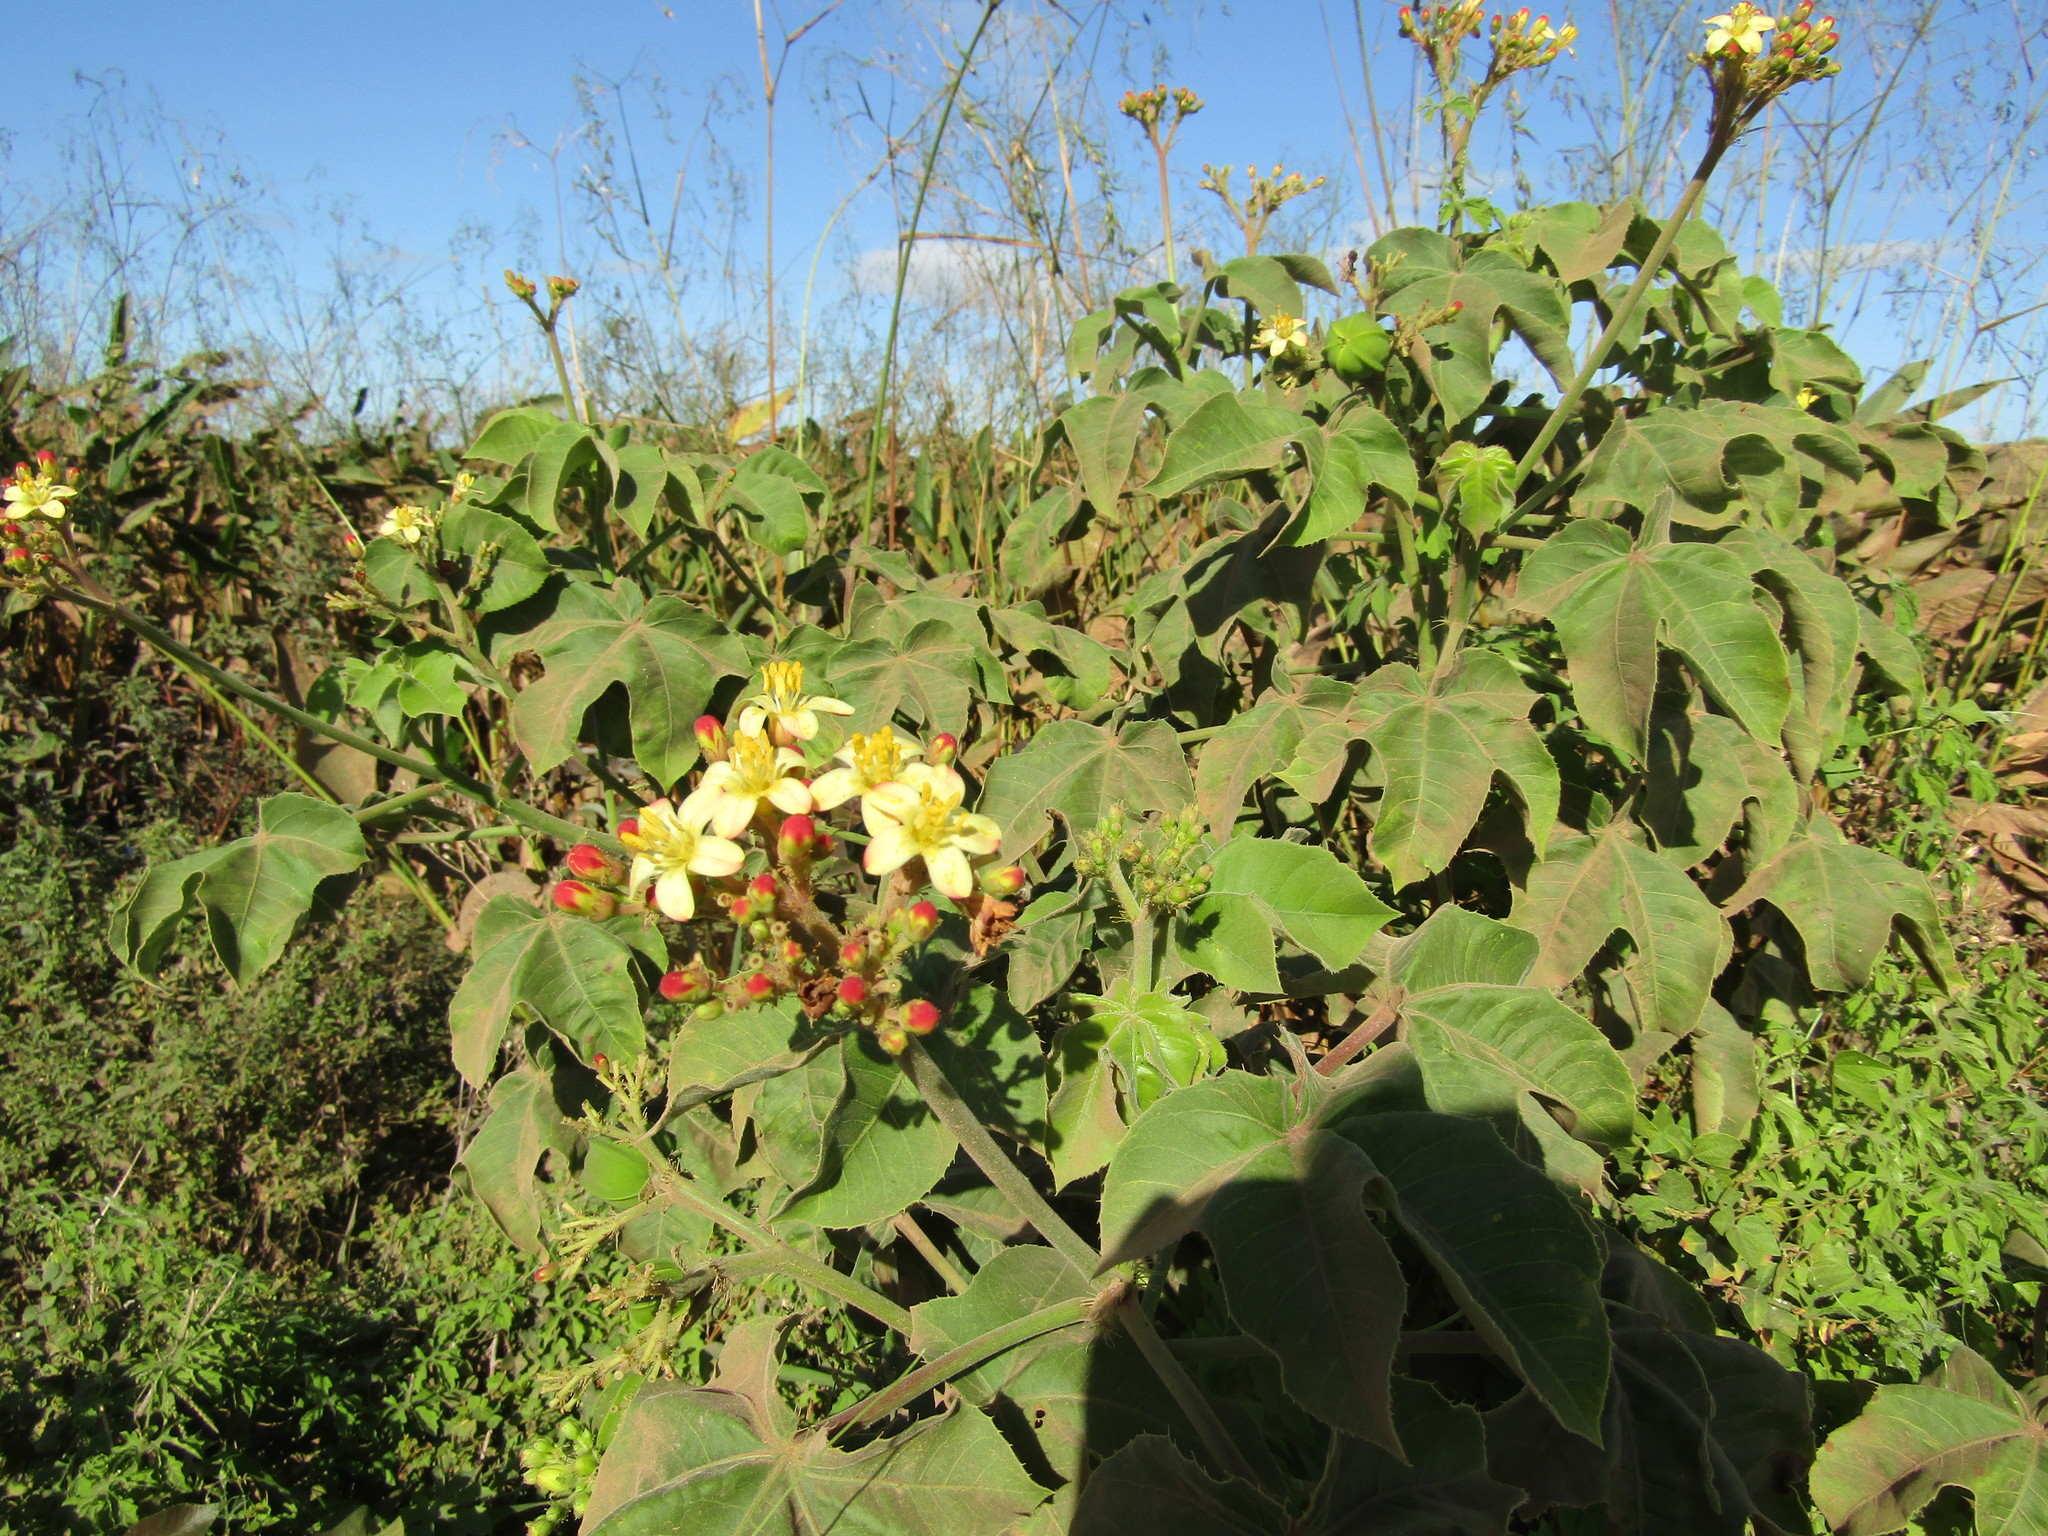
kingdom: Plantae
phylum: Tracheophyta
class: Magnoliopsida
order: Malpighiales
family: Euphorbiaceae
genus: Jatropha
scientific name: Jatropha mollissima
